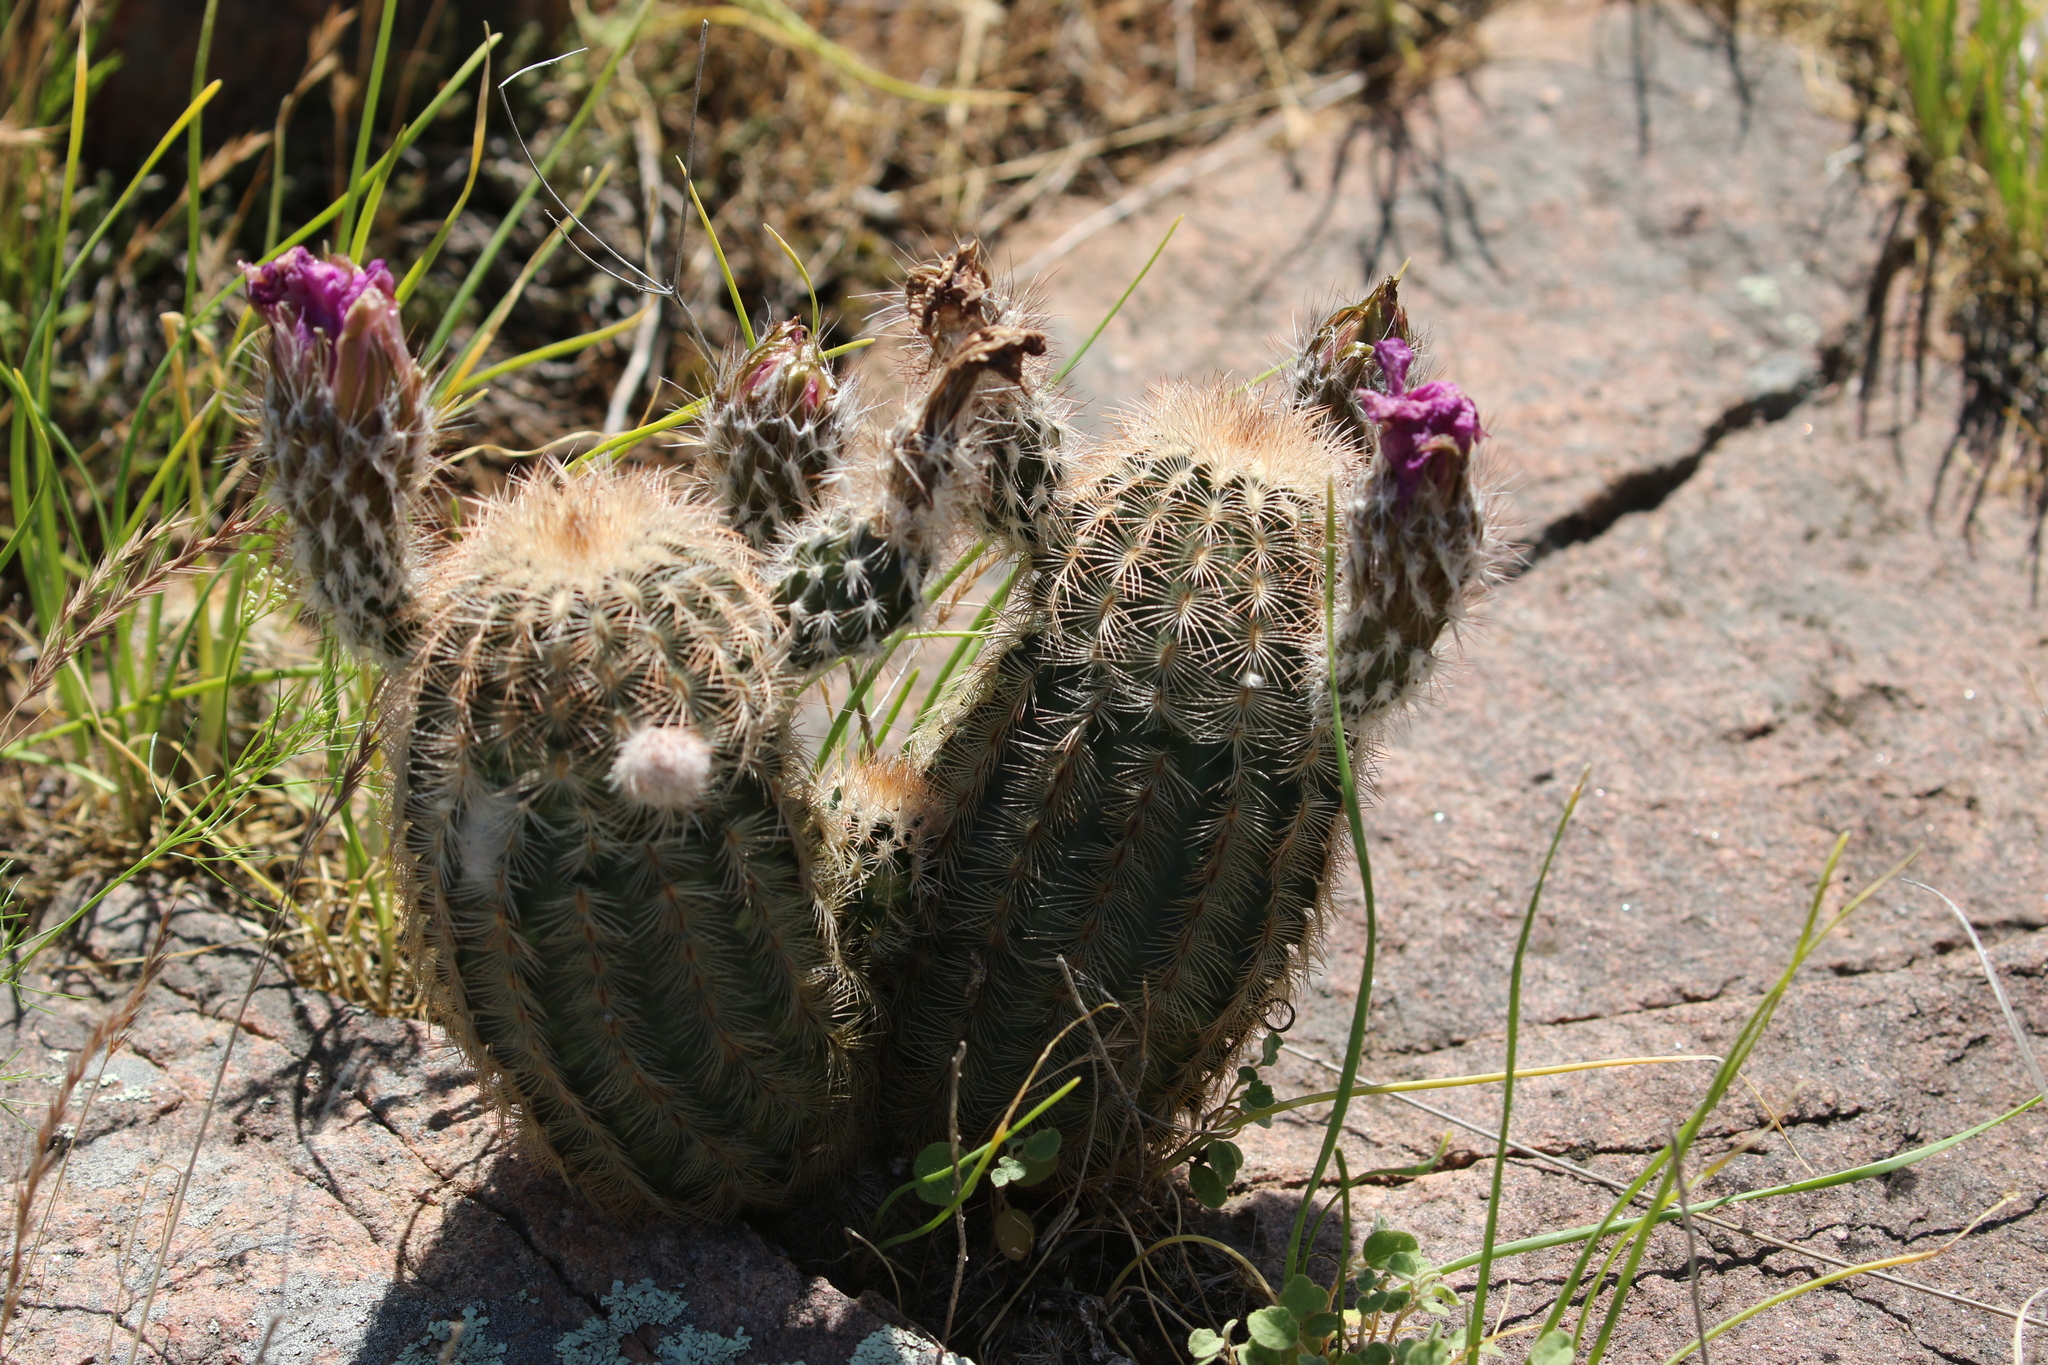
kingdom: Plantae
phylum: Tracheophyta
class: Magnoliopsida
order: Caryophyllales
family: Cactaceae
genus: Echinocereus
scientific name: Echinocereus reichenbachii
